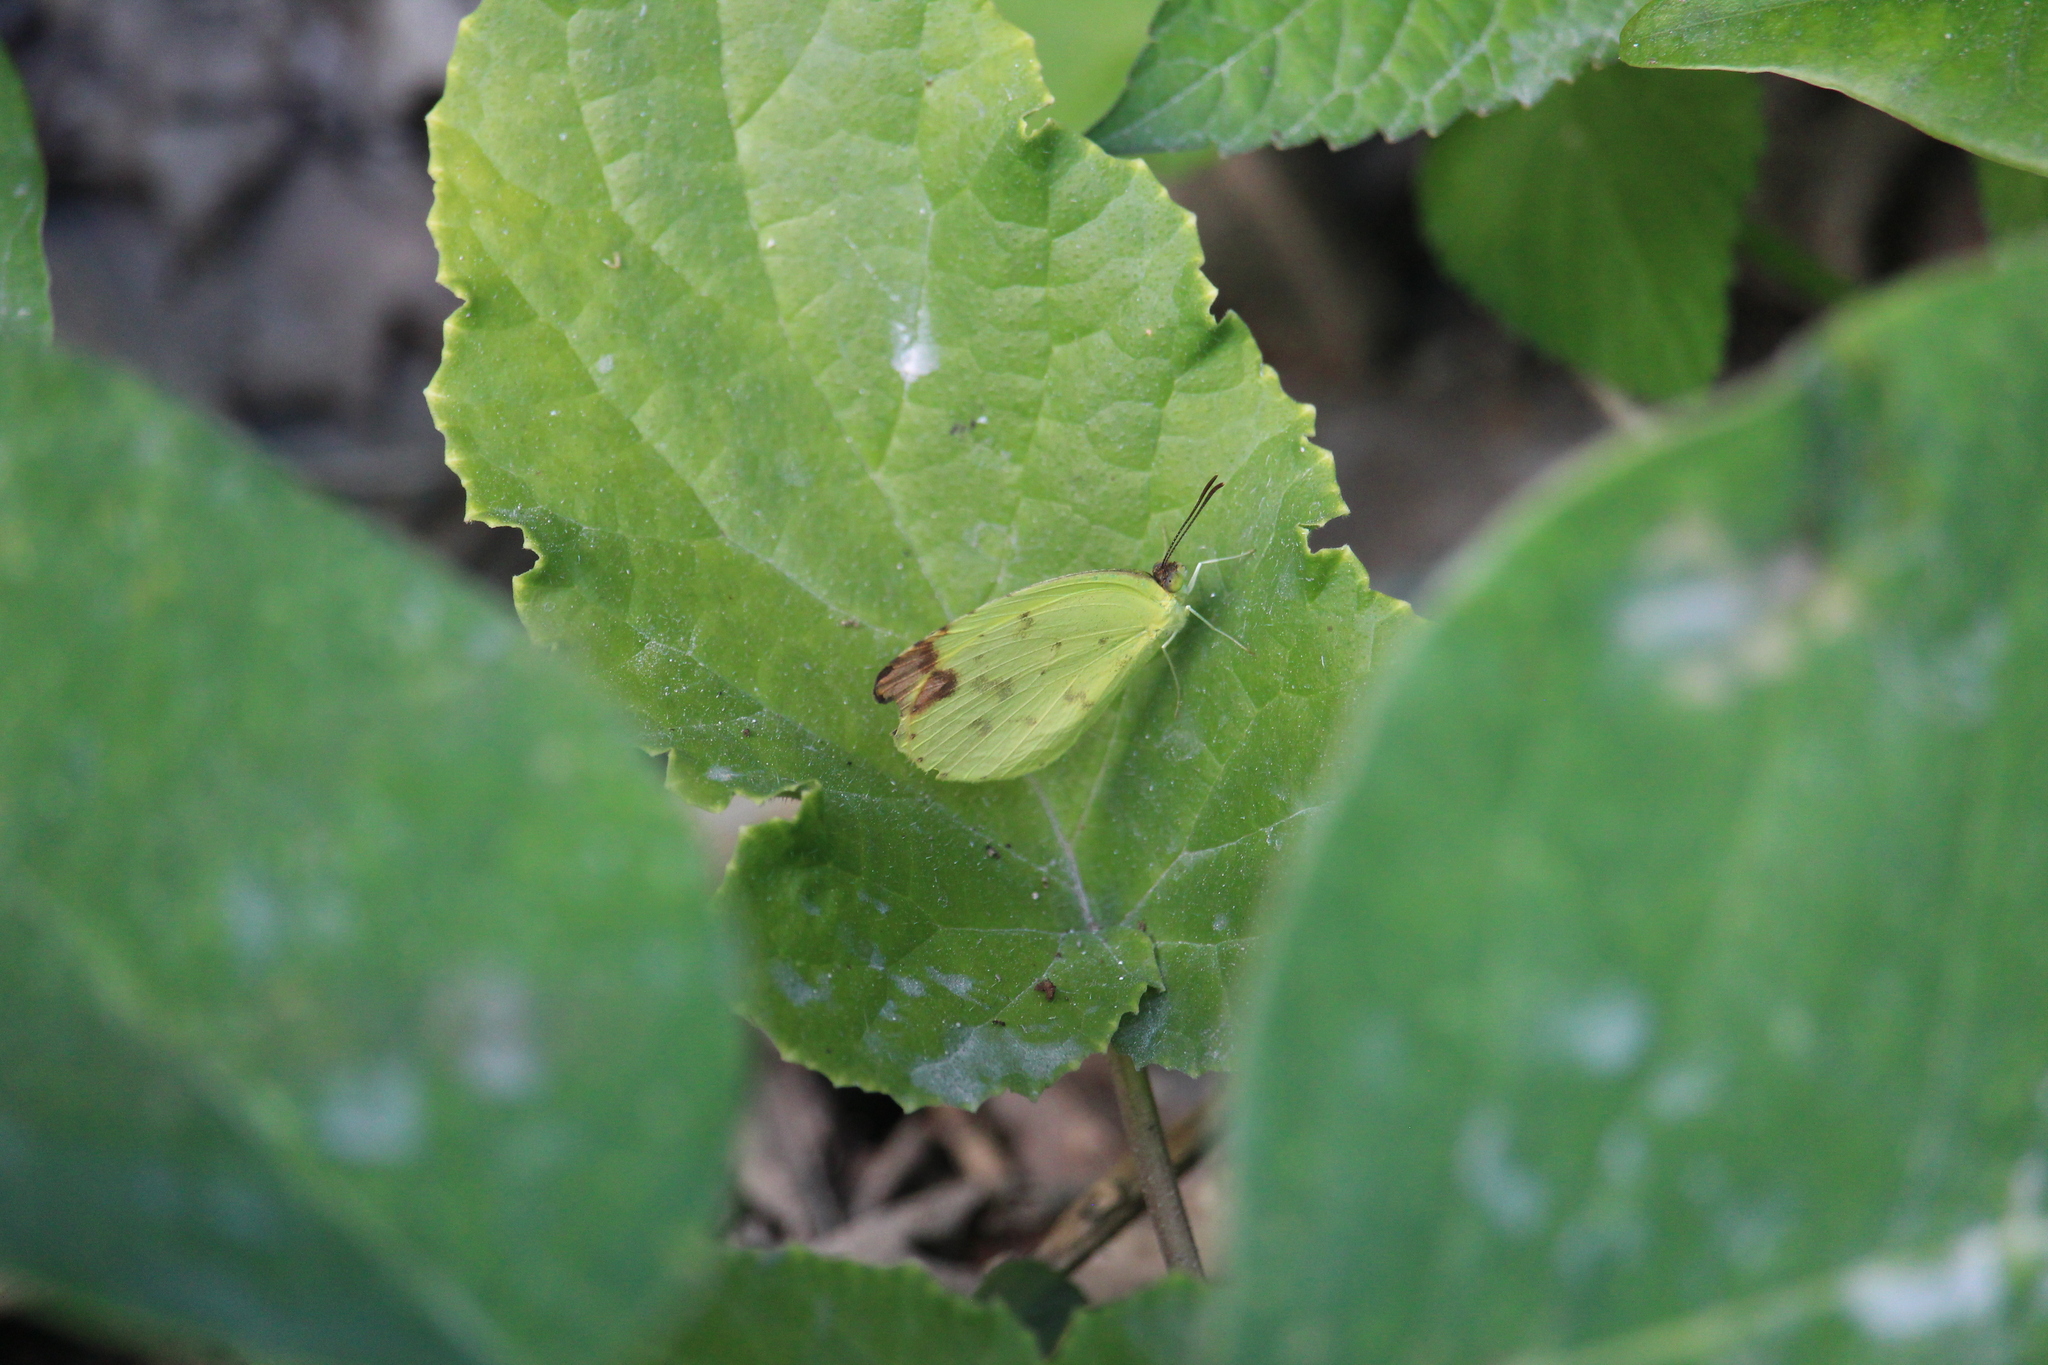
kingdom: Animalia
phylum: Arthropoda
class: Insecta
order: Lepidoptera
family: Pieridae
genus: Pyrisitia
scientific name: Pyrisitia leuce
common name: Hall's sulfur
